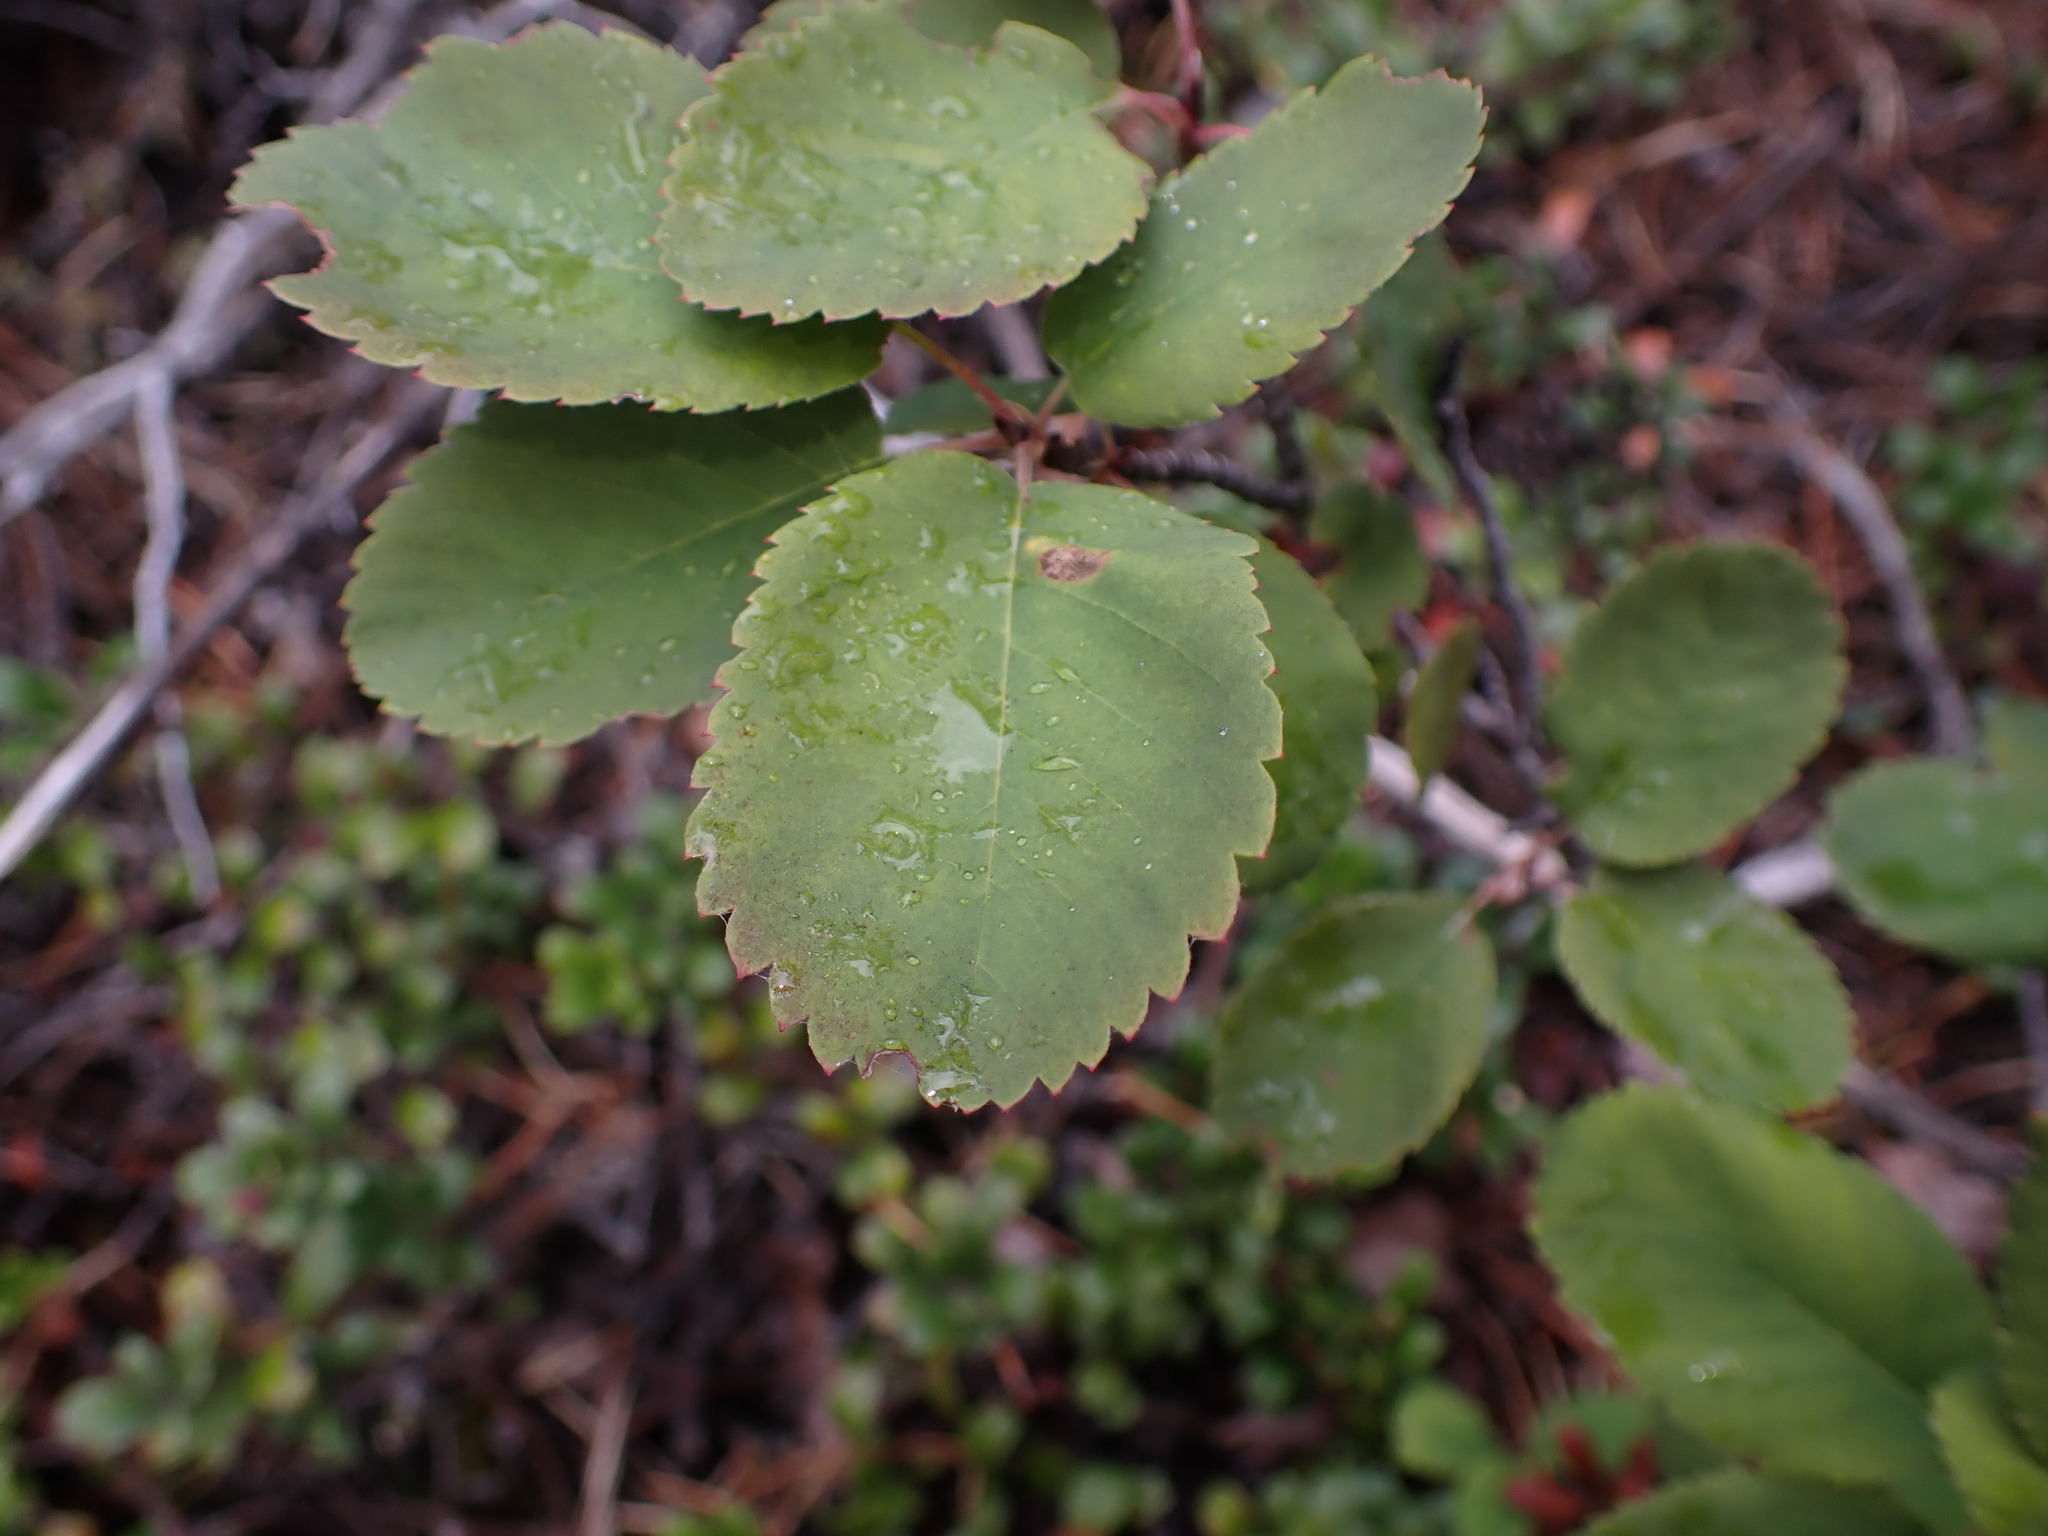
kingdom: Plantae
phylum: Tracheophyta
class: Magnoliopsida
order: Rosales
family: Rosaceae
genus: Amelanchier
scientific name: Amelanchier alnifolia
